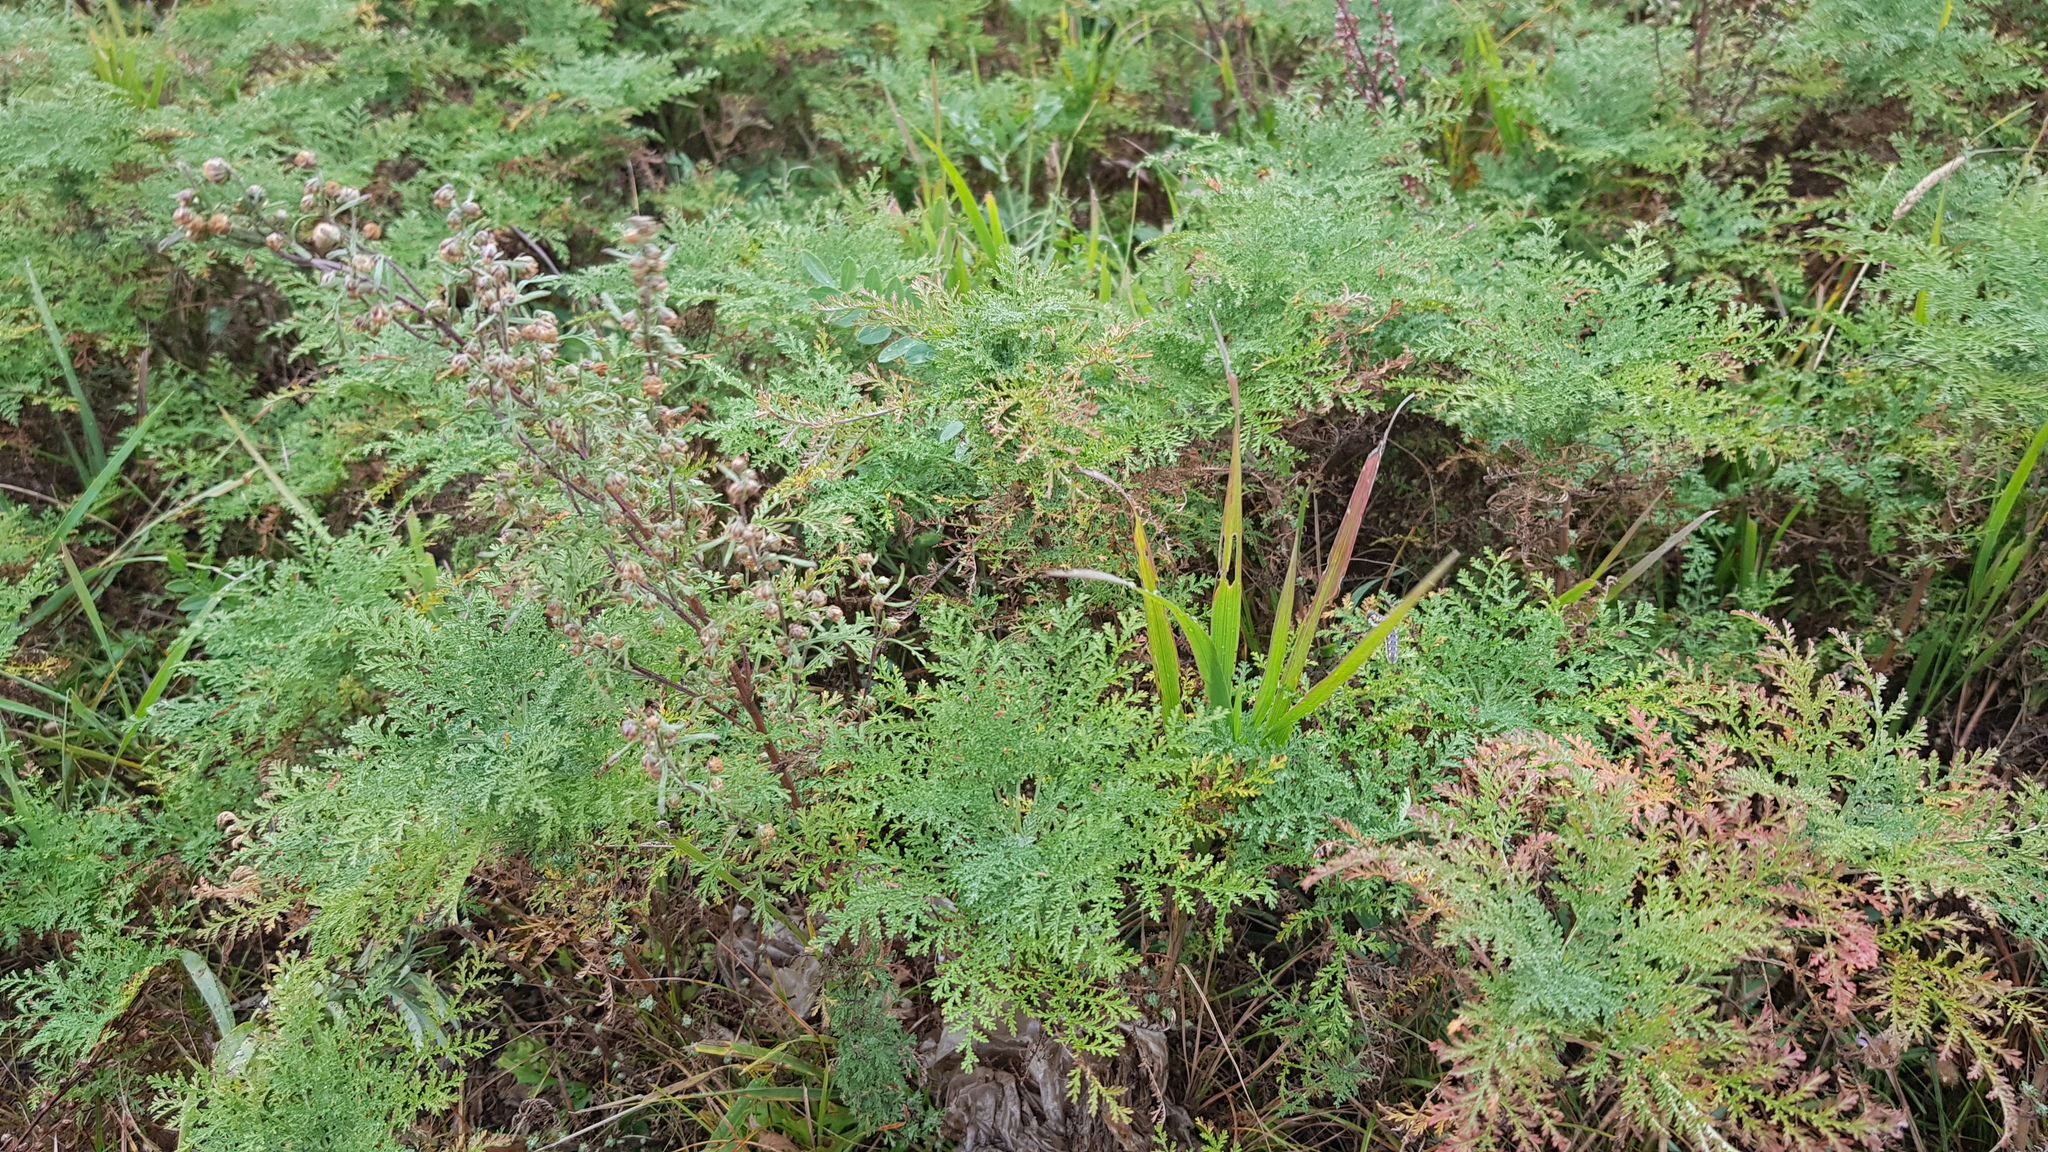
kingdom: Plantae
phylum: Tracheophyta
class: Magnoliopsida
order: Asterales
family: Asteraceae
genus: Artemisia
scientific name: Artemisia gmelinii
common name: Gmelin's wormwood
